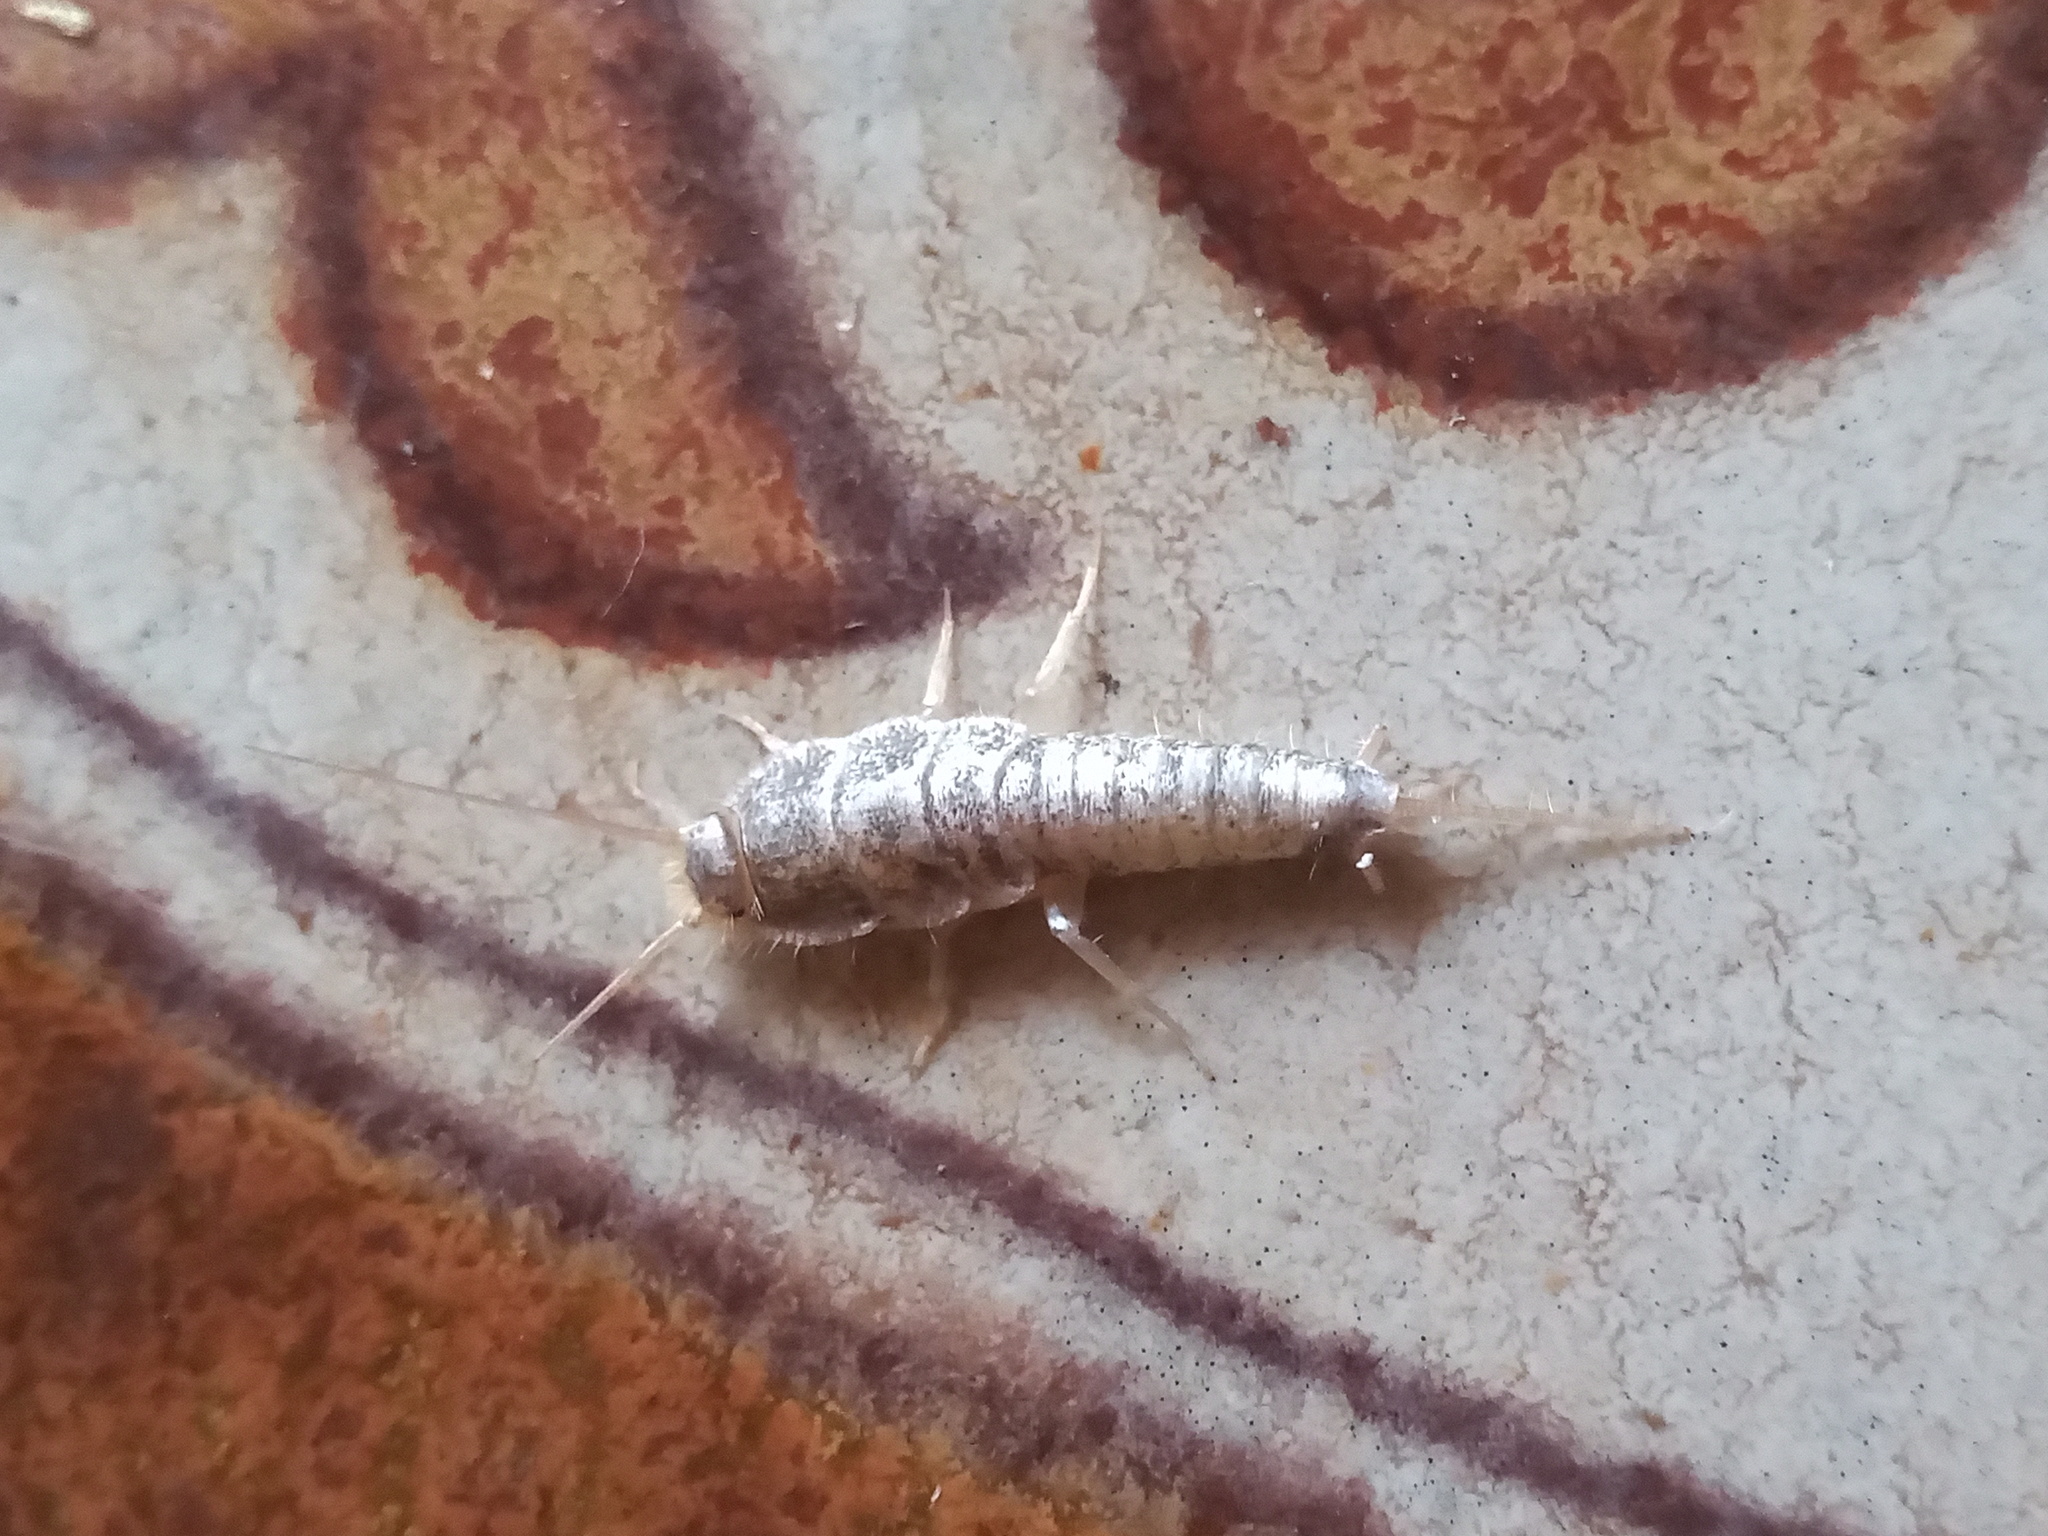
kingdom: Animalia
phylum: Arthropoda
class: Insecta
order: Zygentoma
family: Lepismatidae
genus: Lepisma
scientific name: Lepisma saccharinum
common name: Silverfish
